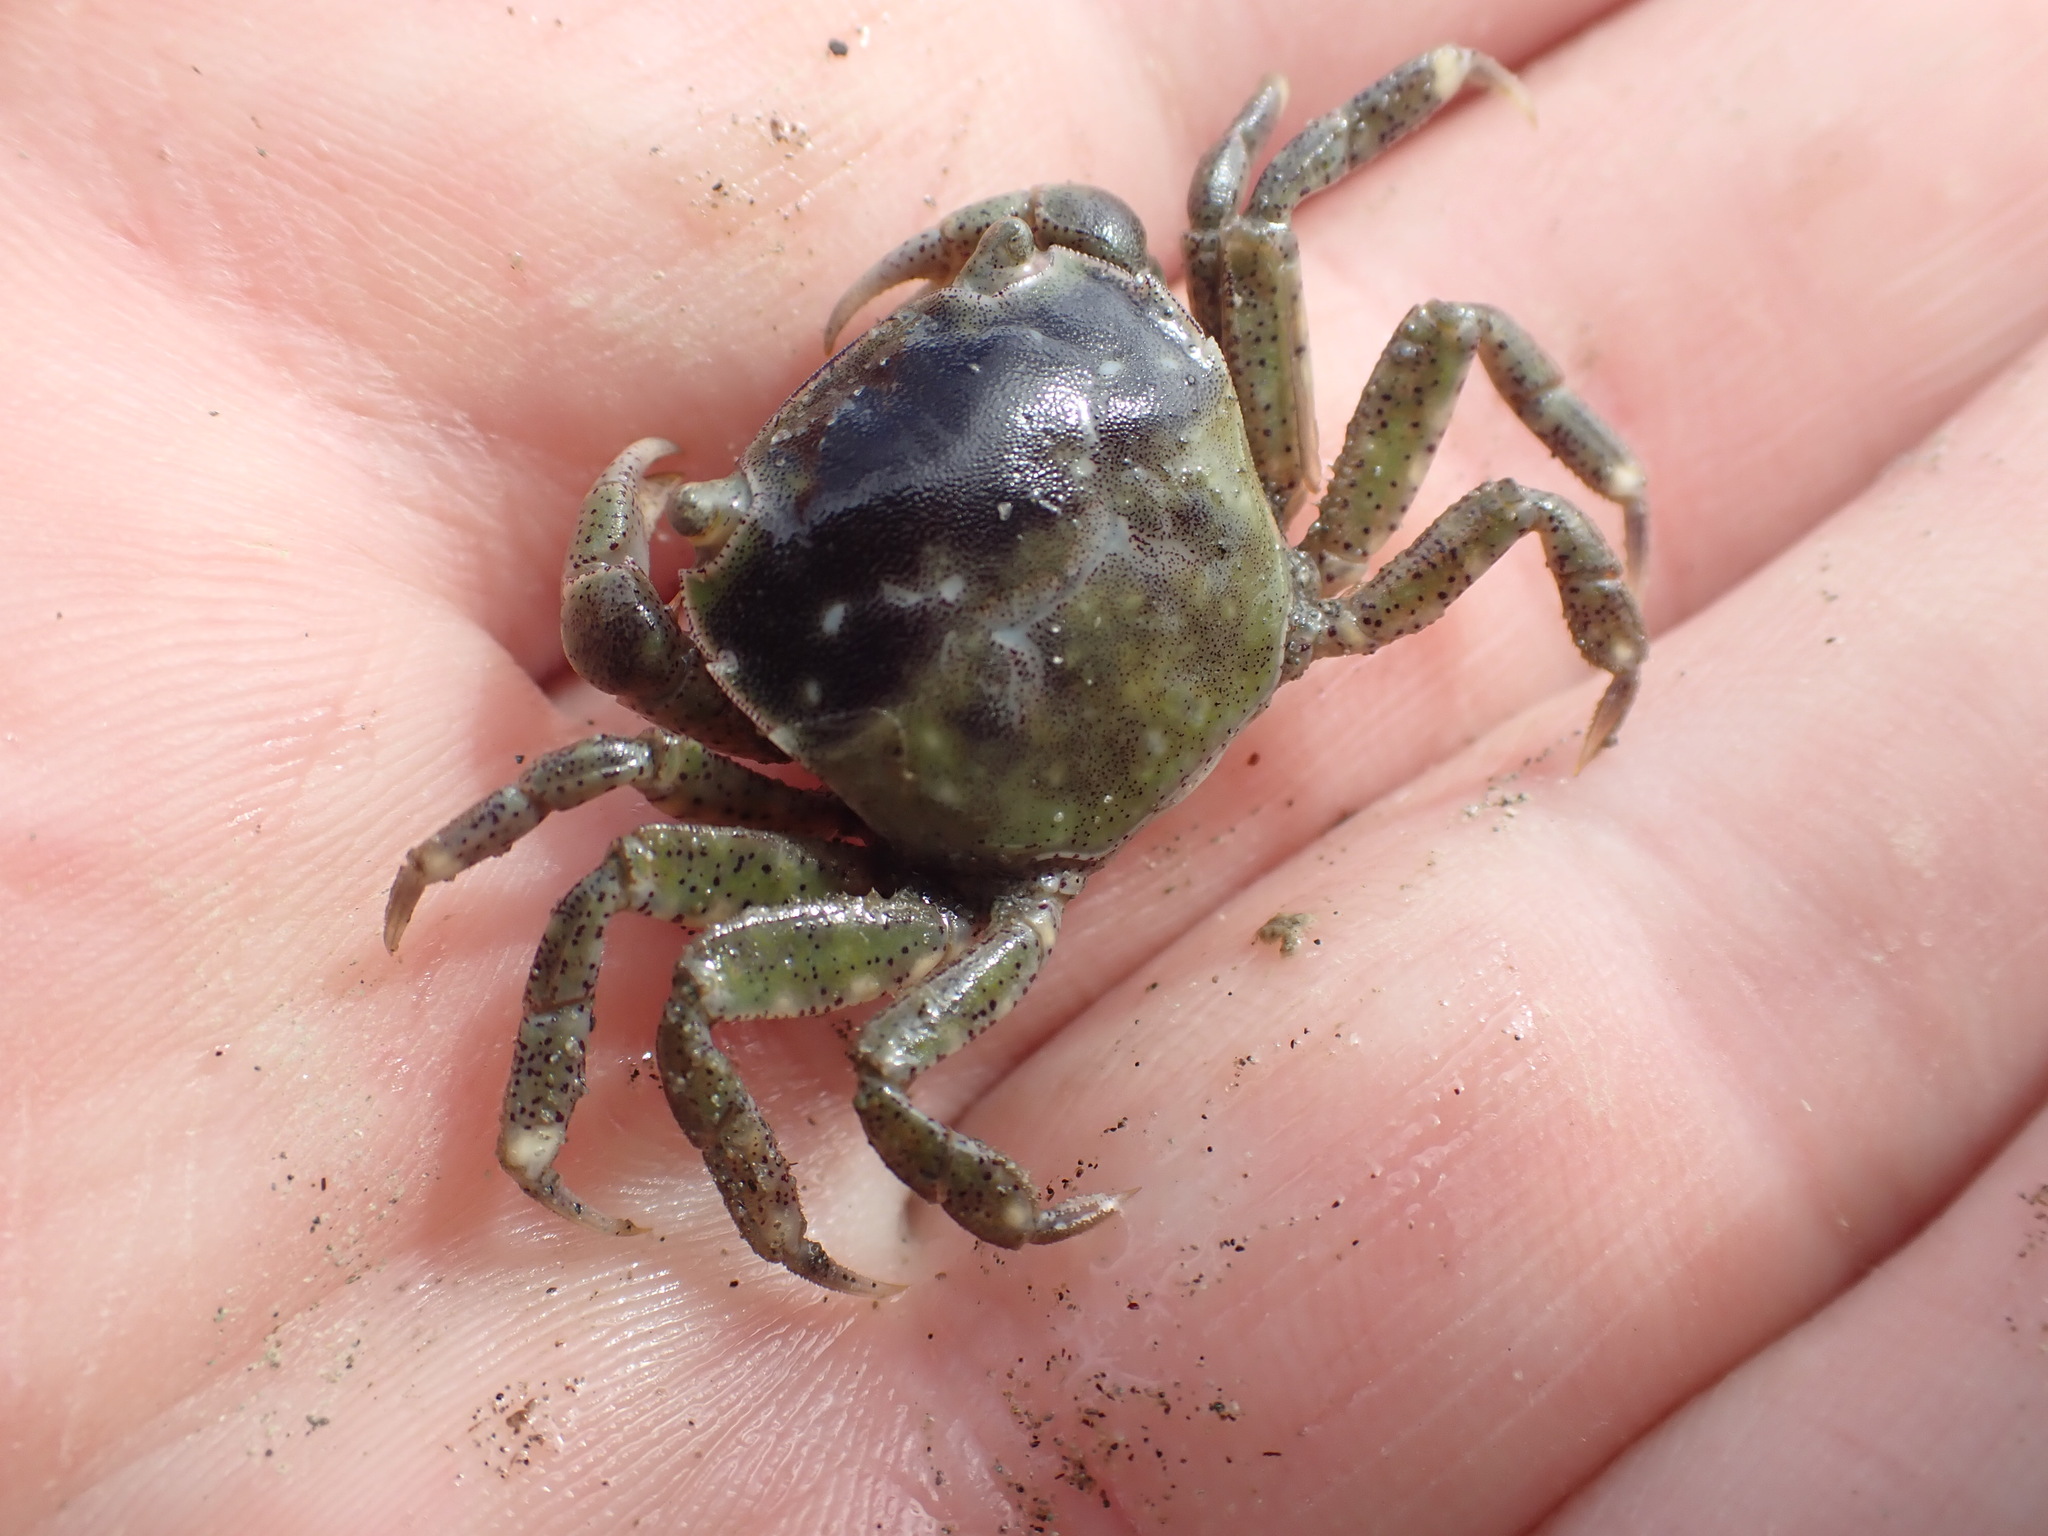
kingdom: Animalia
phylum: Arthropoda
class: Malacostraca
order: Decapoda
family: Varunidae
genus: Hemigrapsus
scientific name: Hemigrapsus crenulatus
